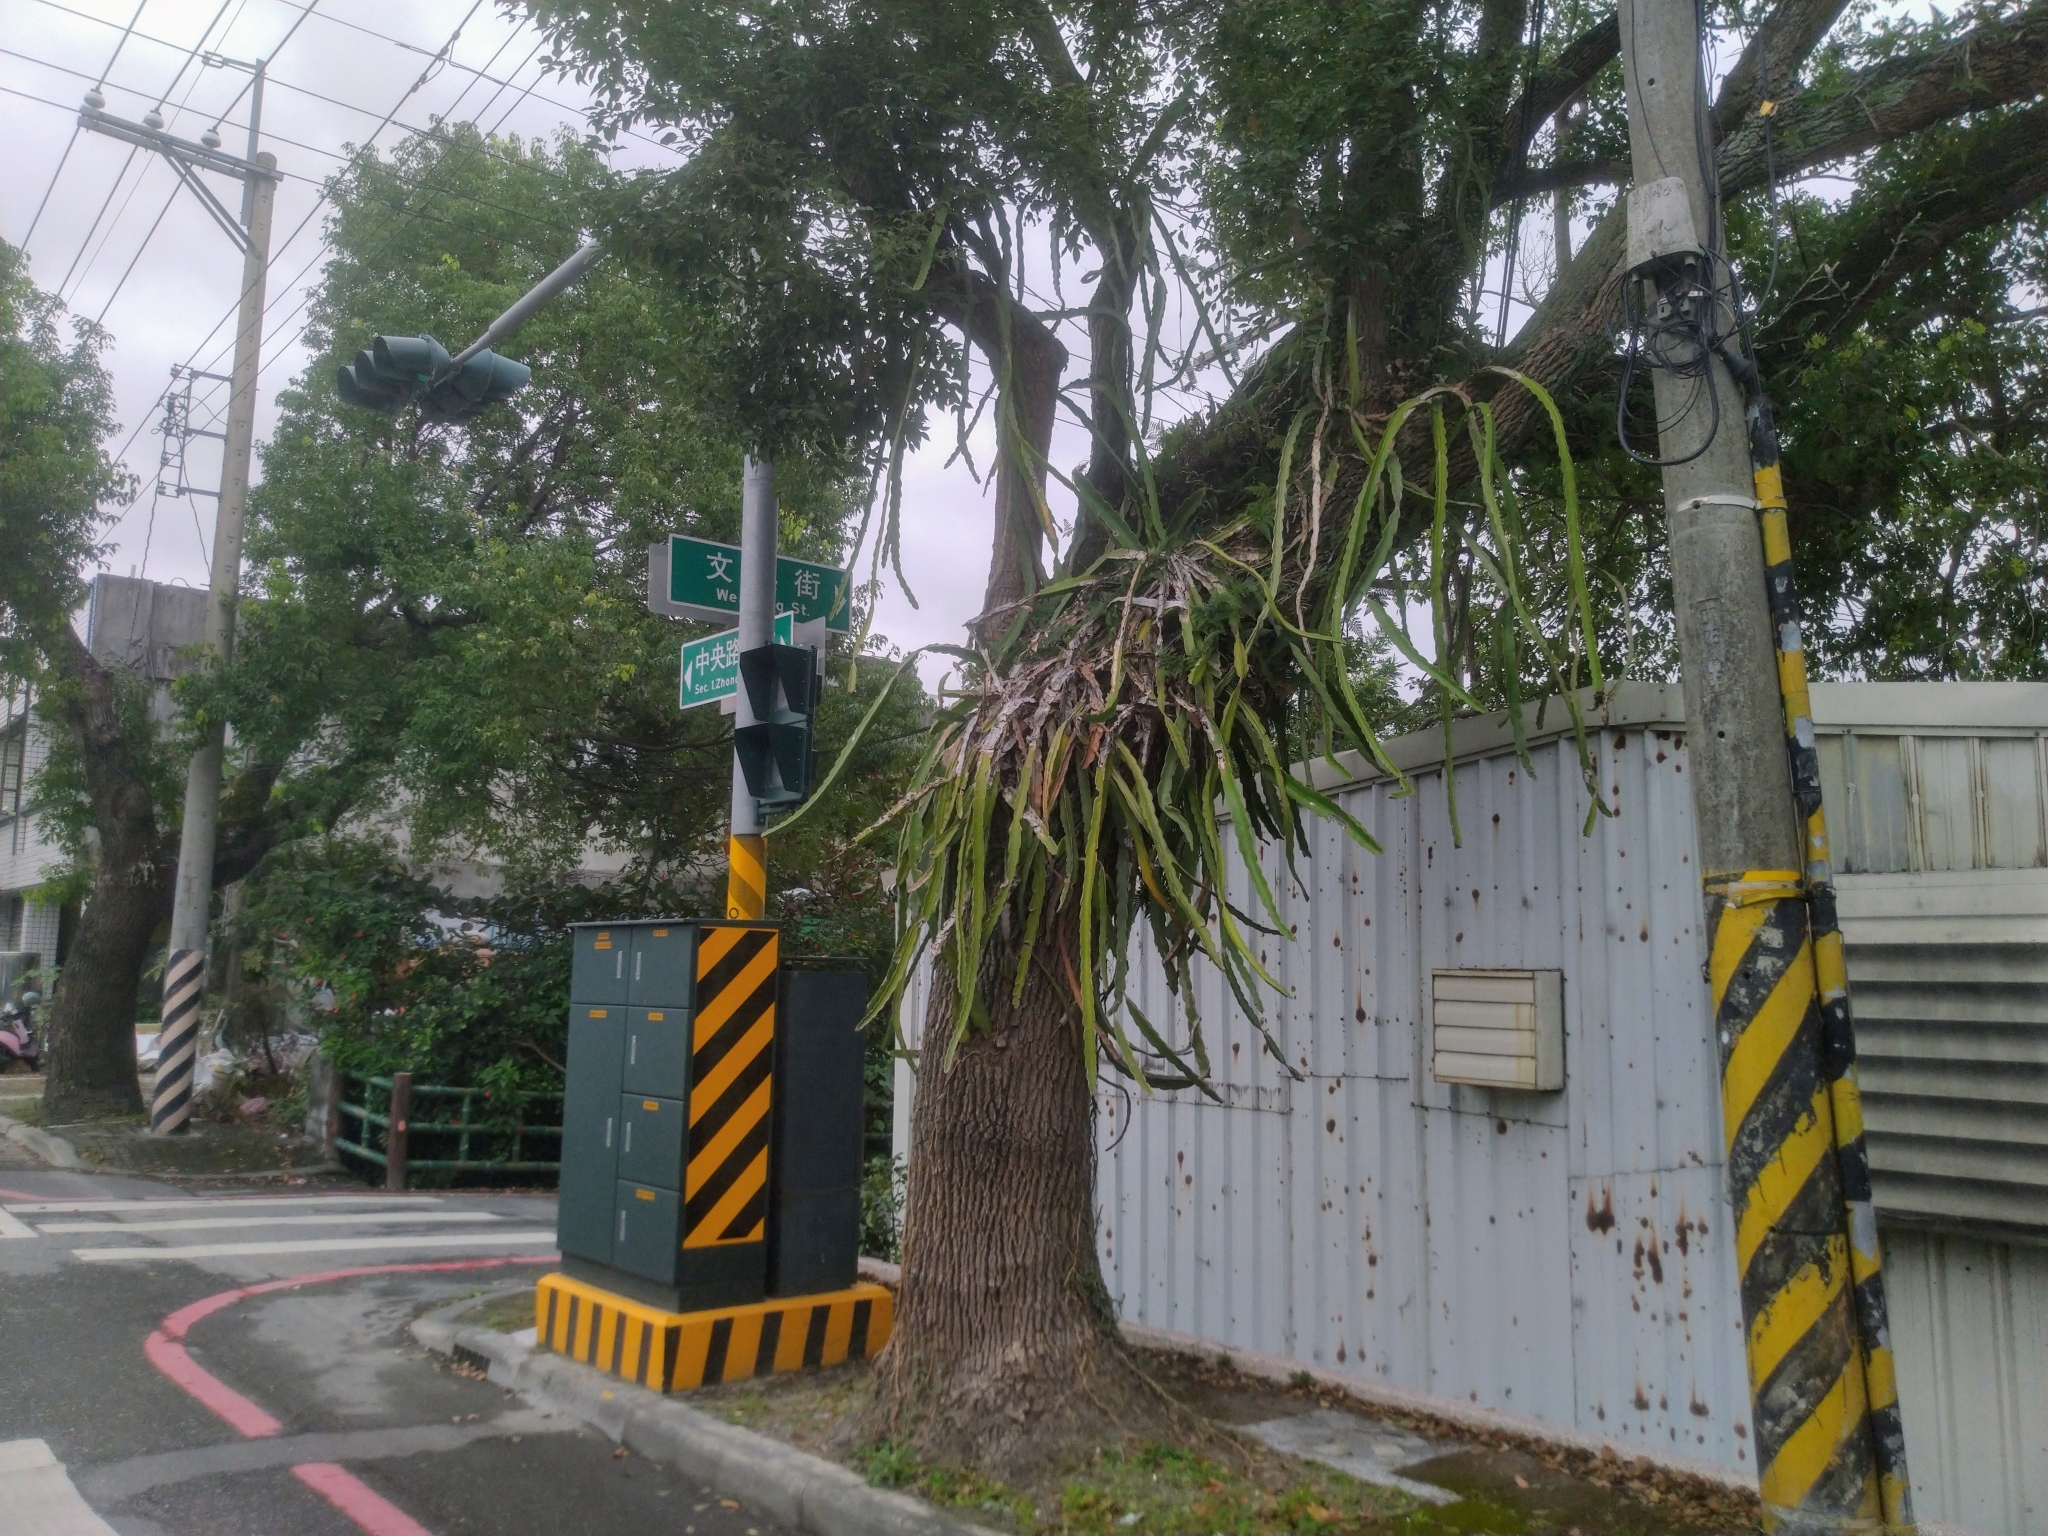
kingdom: Plantae
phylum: Tracheophyta
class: Magnoliopsida
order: Caryophyllales
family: Cactaceae
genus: Selenicereus
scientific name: Selenicereus undatus
